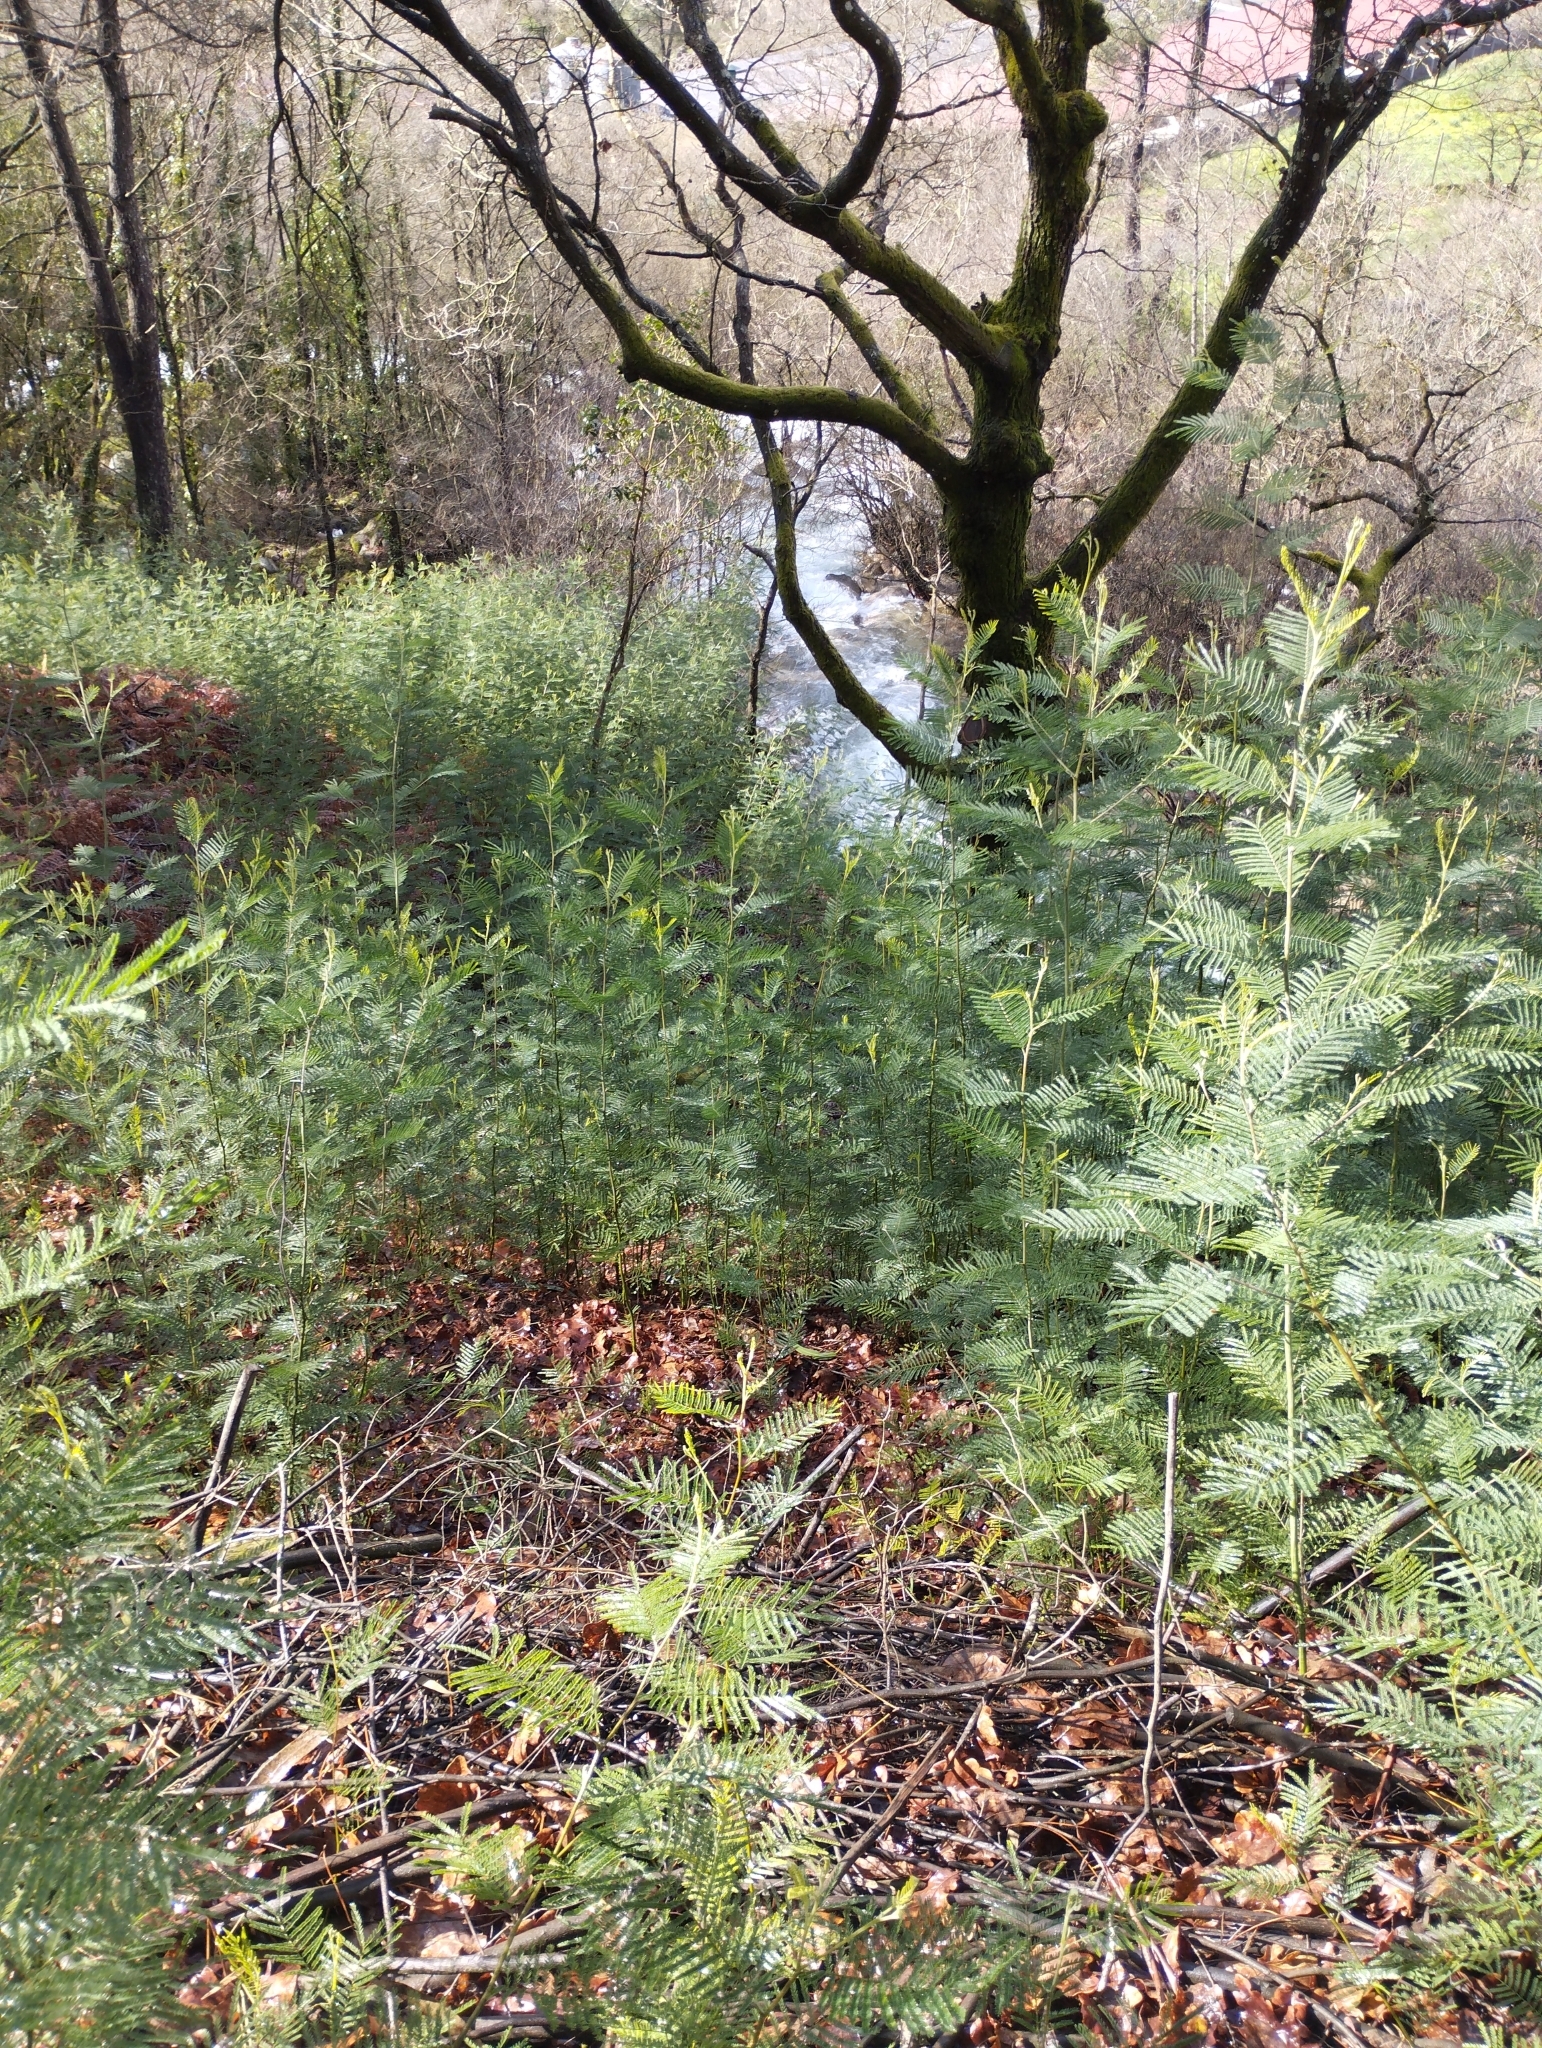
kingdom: Plantae
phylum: Tracheophyta
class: Magnoliopsida
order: Fabales
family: Fabaceae
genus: Acacia
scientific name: Acacia dealbata
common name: Silver wattle
